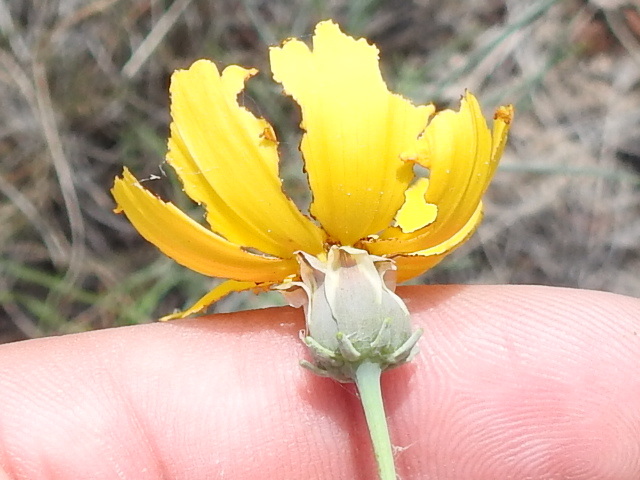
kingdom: Plantae
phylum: Tracheophyta
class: Magnoliopsida
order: Asterales
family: Asteraceae
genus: Thelesperma
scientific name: Thelesperma simplicifolium
